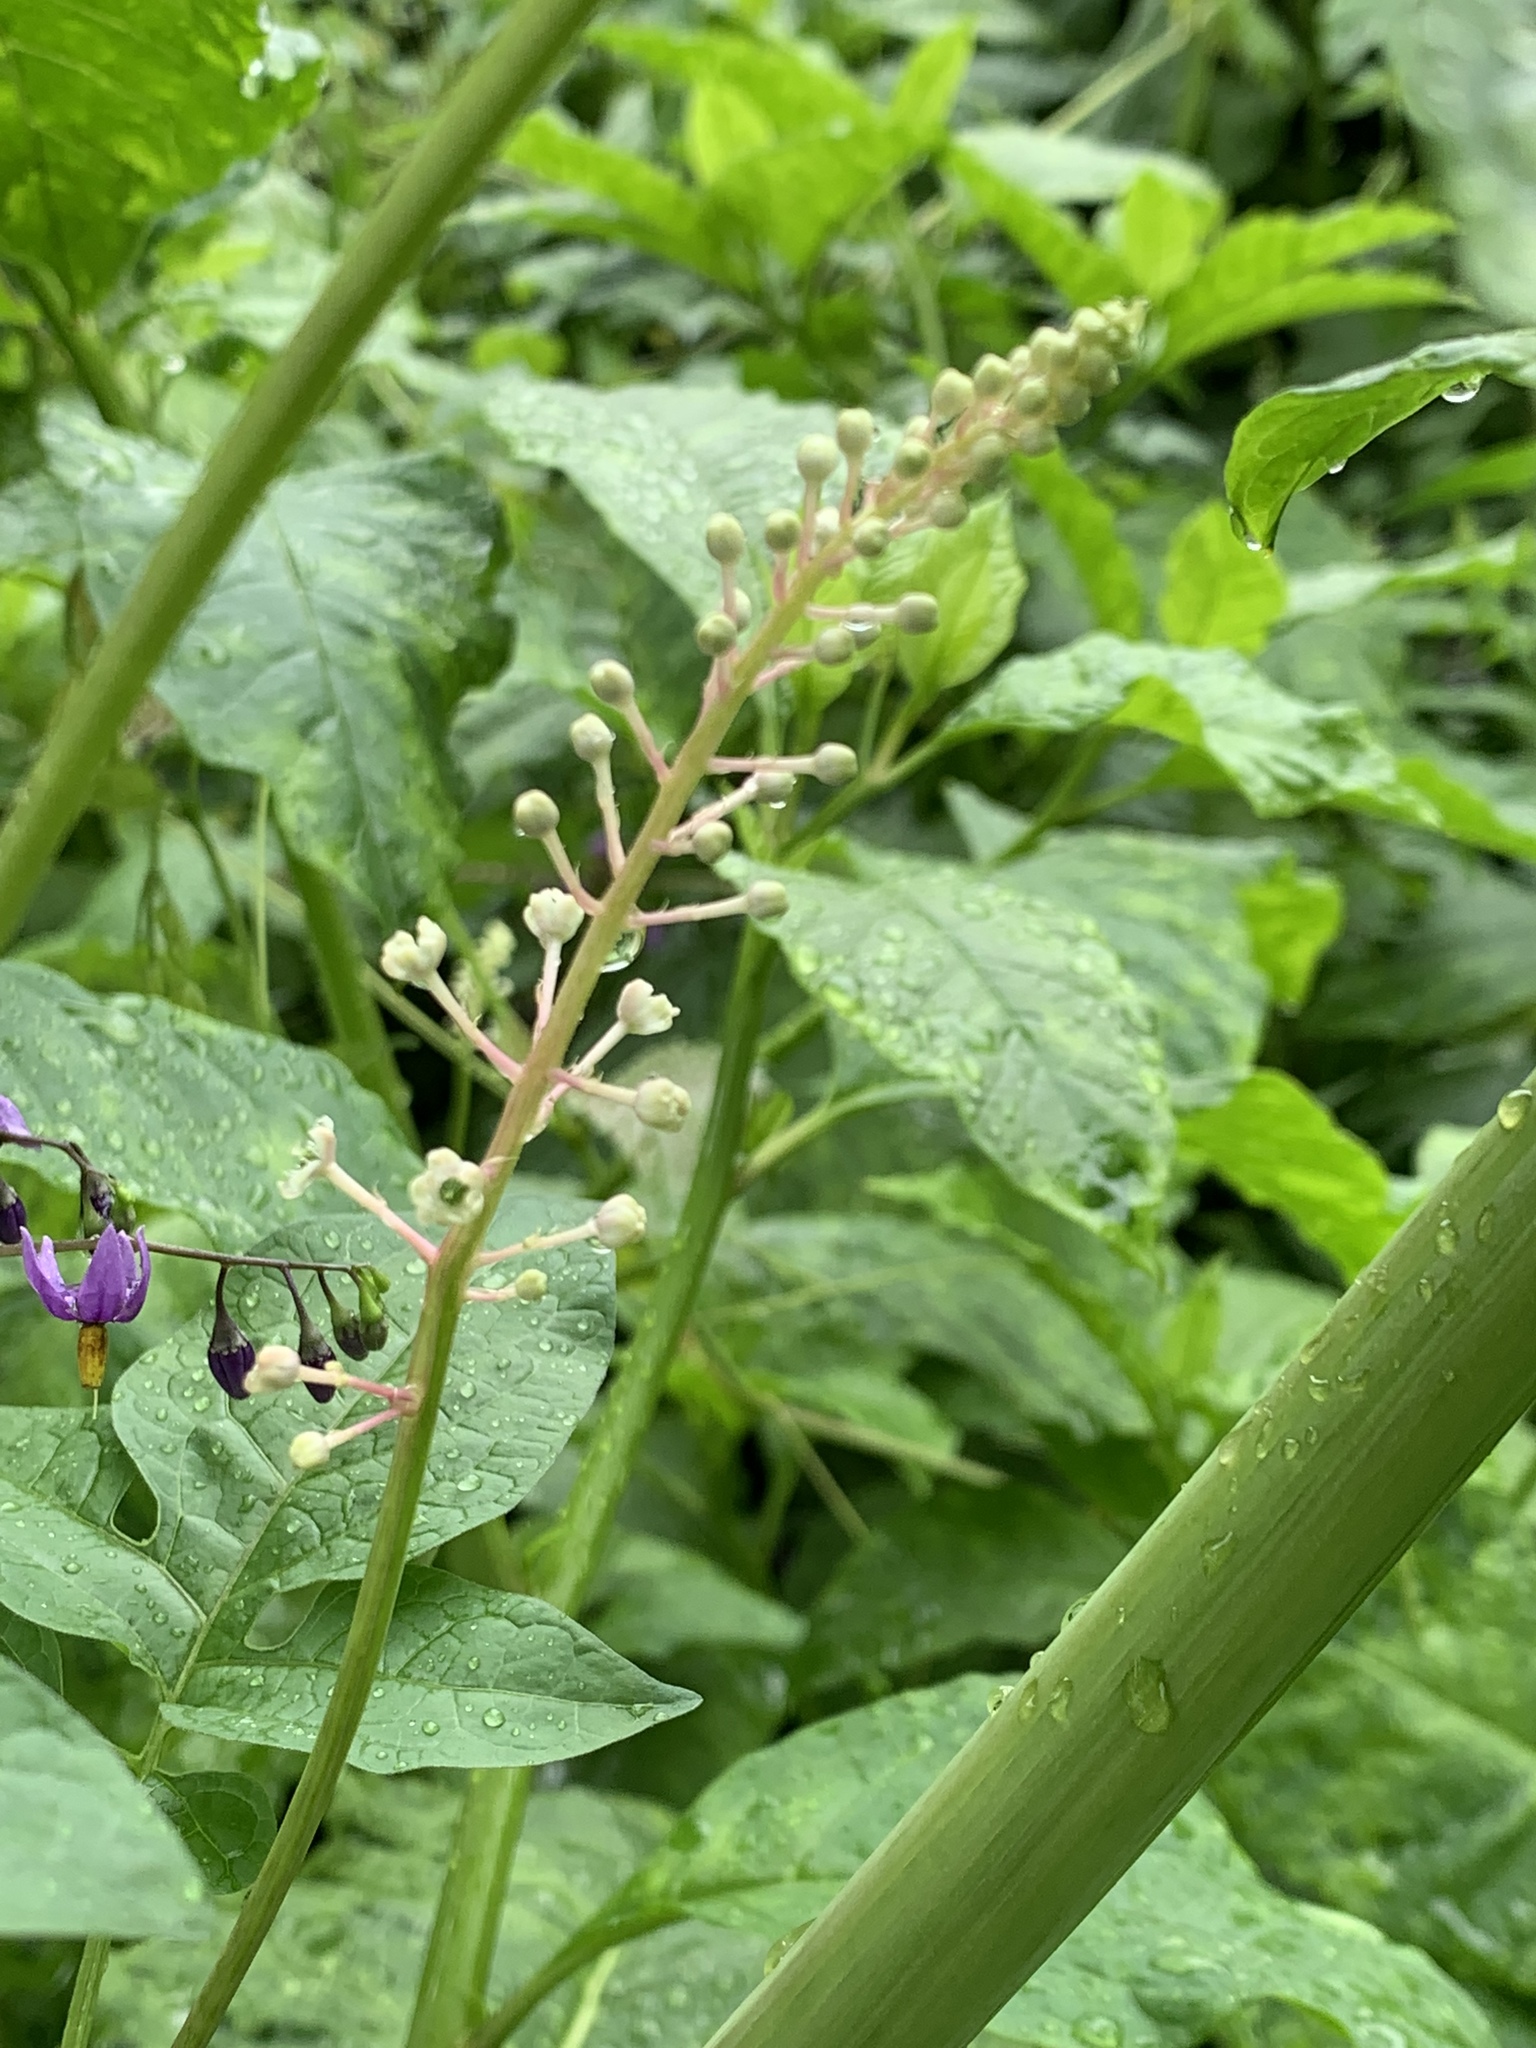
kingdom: Plantae
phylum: Tracheophyta
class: Magnoliopsida
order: Caryophyllales
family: Phytolaccaceae
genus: Phytolacca
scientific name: Phytolacca americana
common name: American pokeweed
